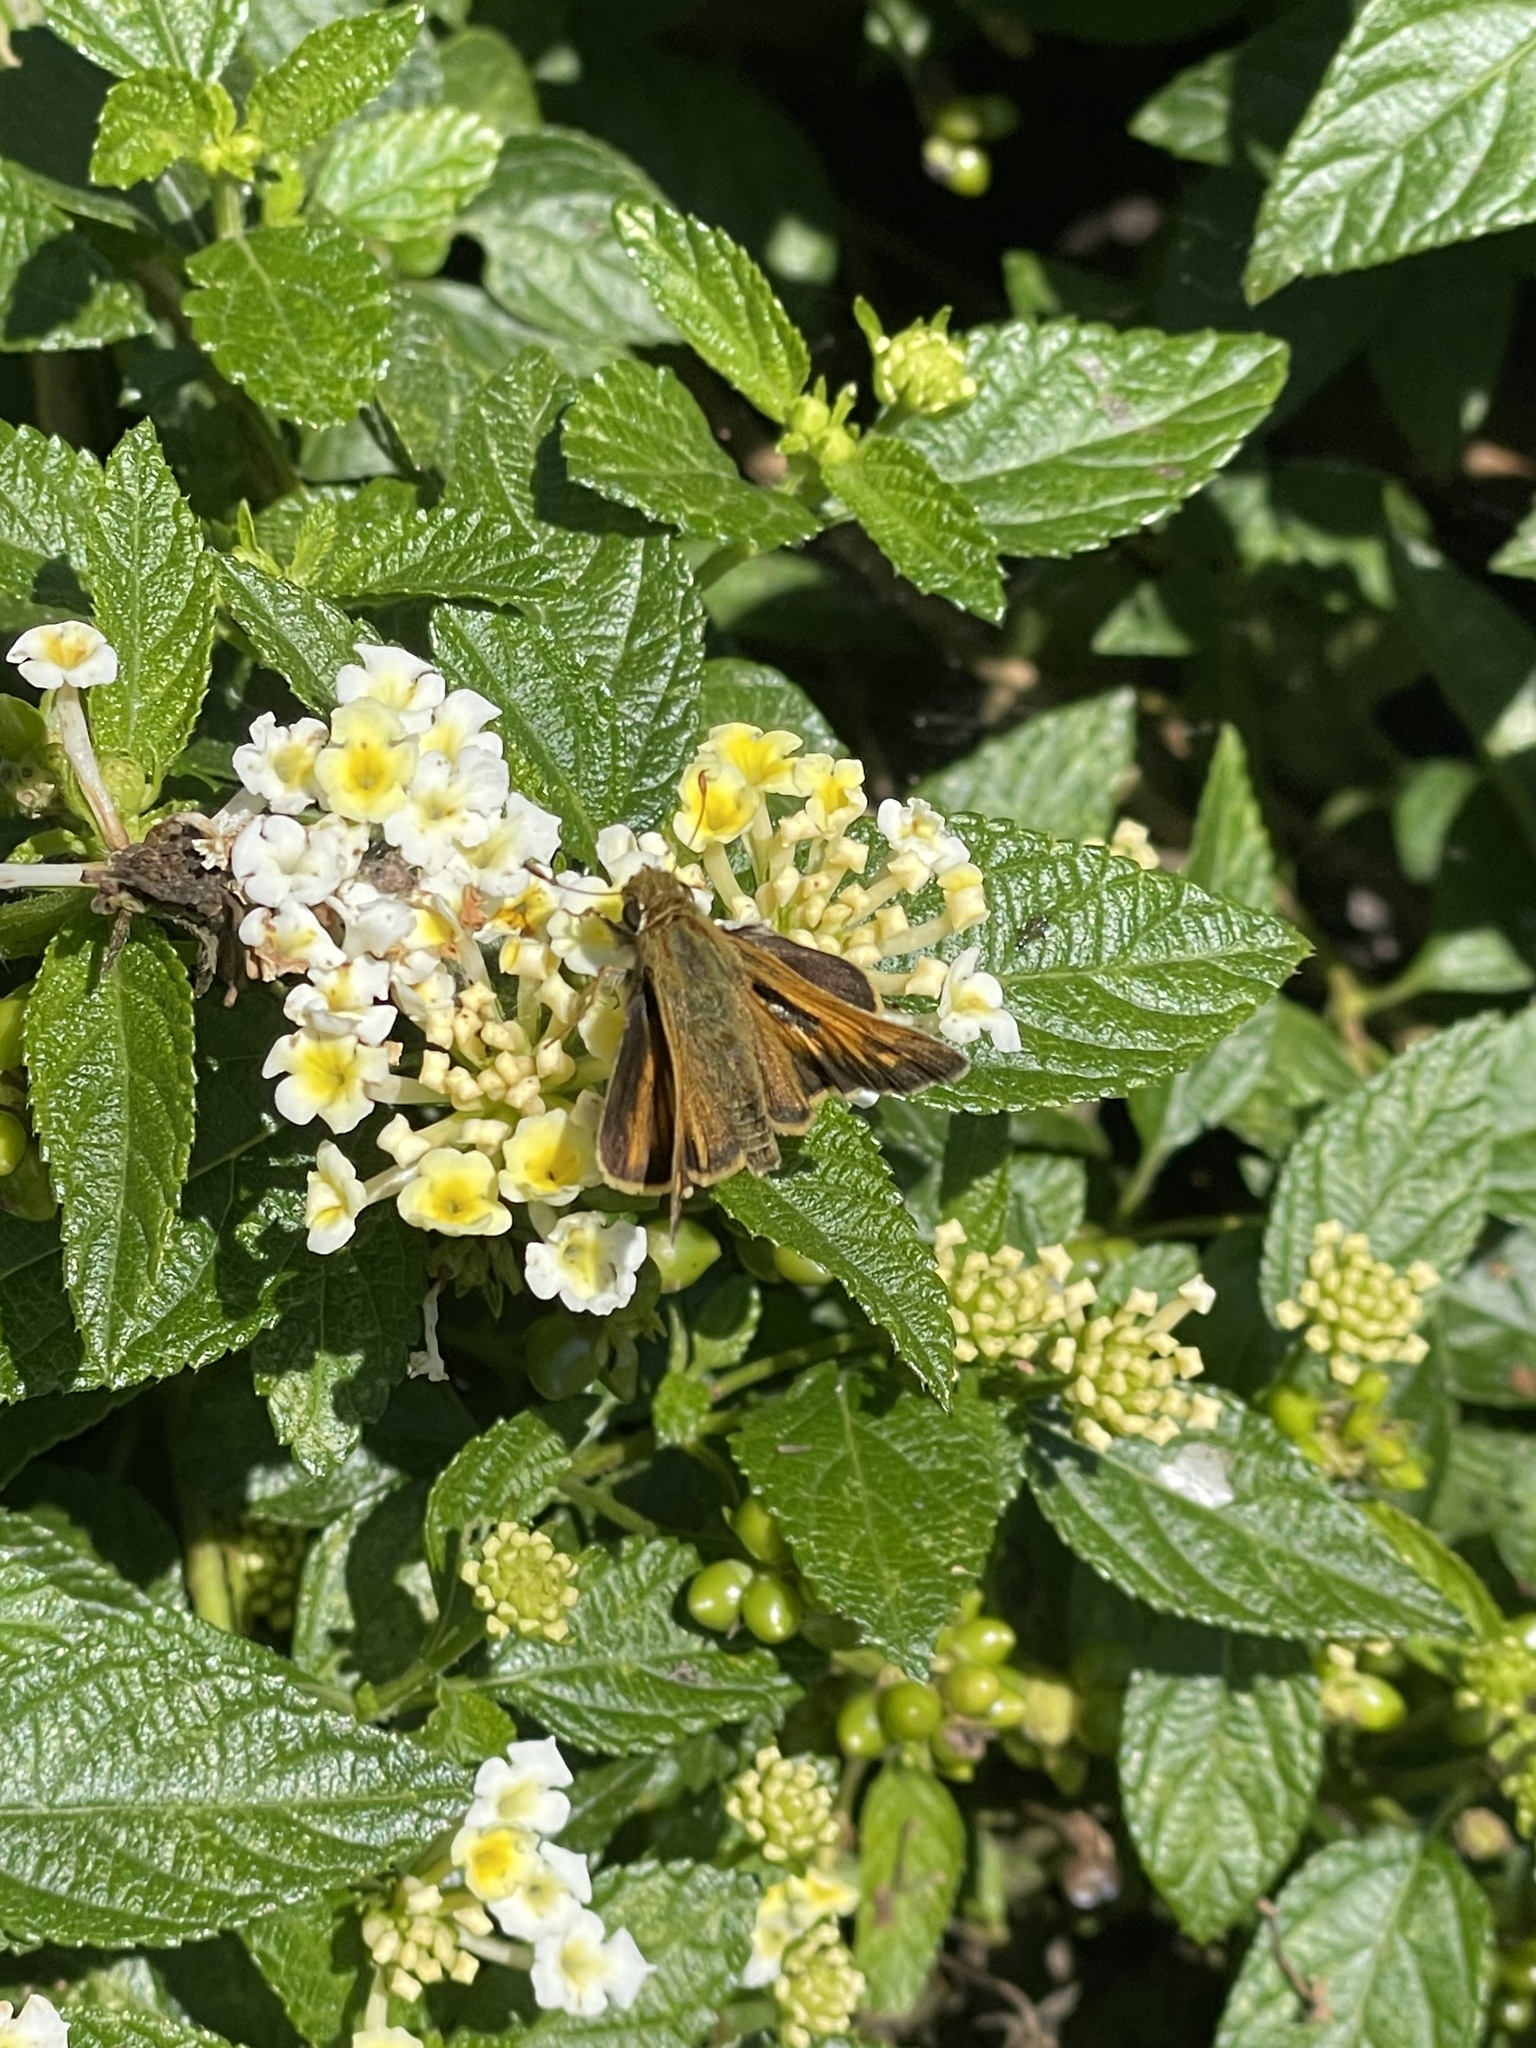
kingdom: Animalia
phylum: Arthropoda
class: Insecta
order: Lepidoptera
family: Hesperiidae
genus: Atalopedes
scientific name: Atalopedes
